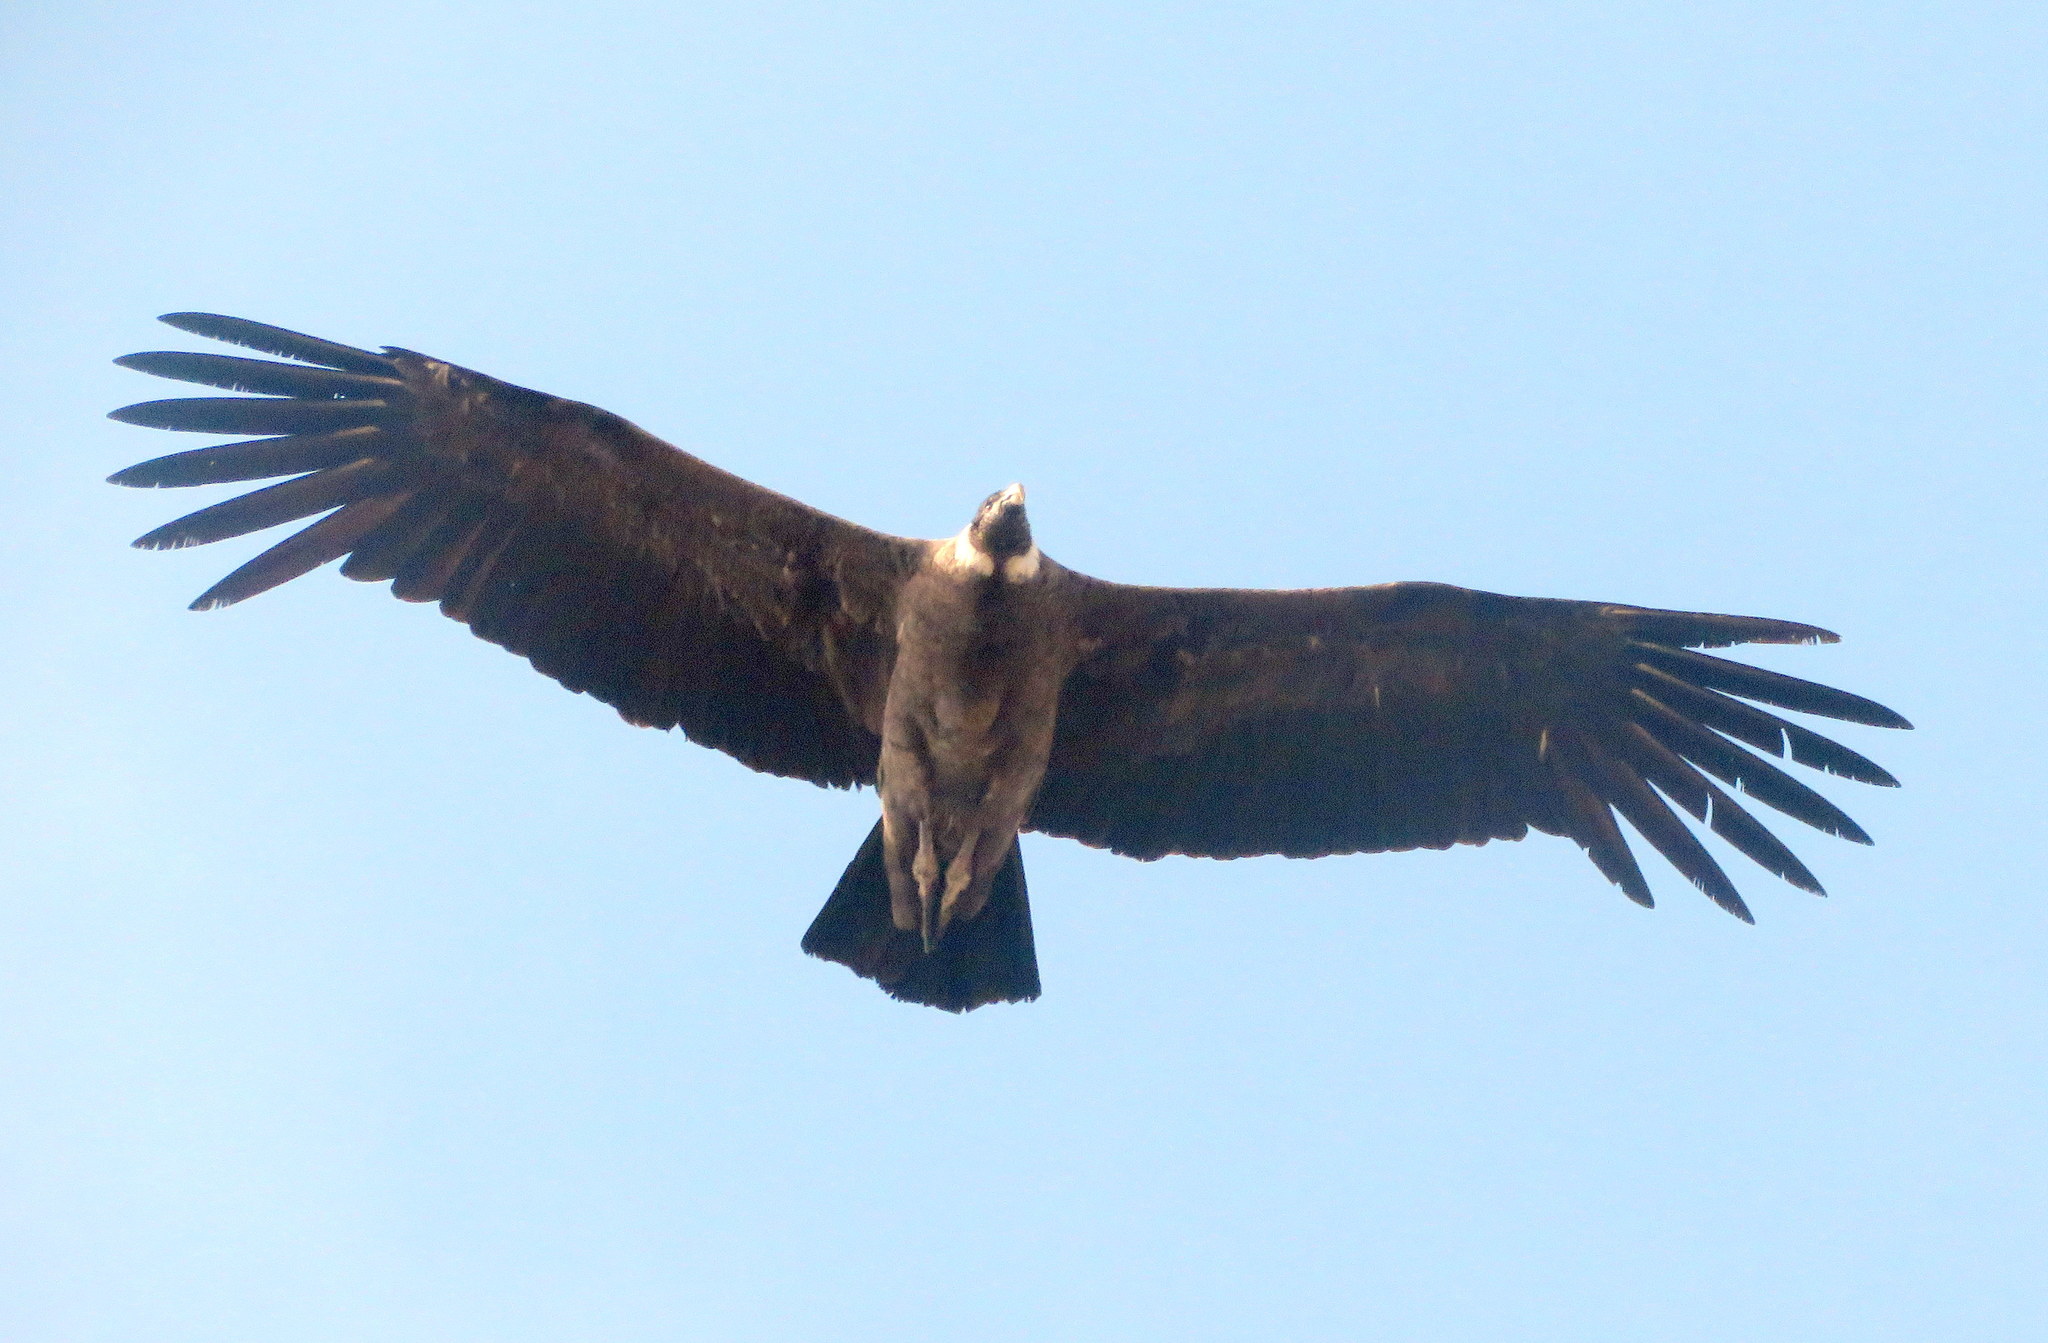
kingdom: Animalia
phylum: Chordata
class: Aves
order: Accipitriformes
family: Cathartidae
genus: Vultur
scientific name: Vultur gryphus
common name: Andean condor
